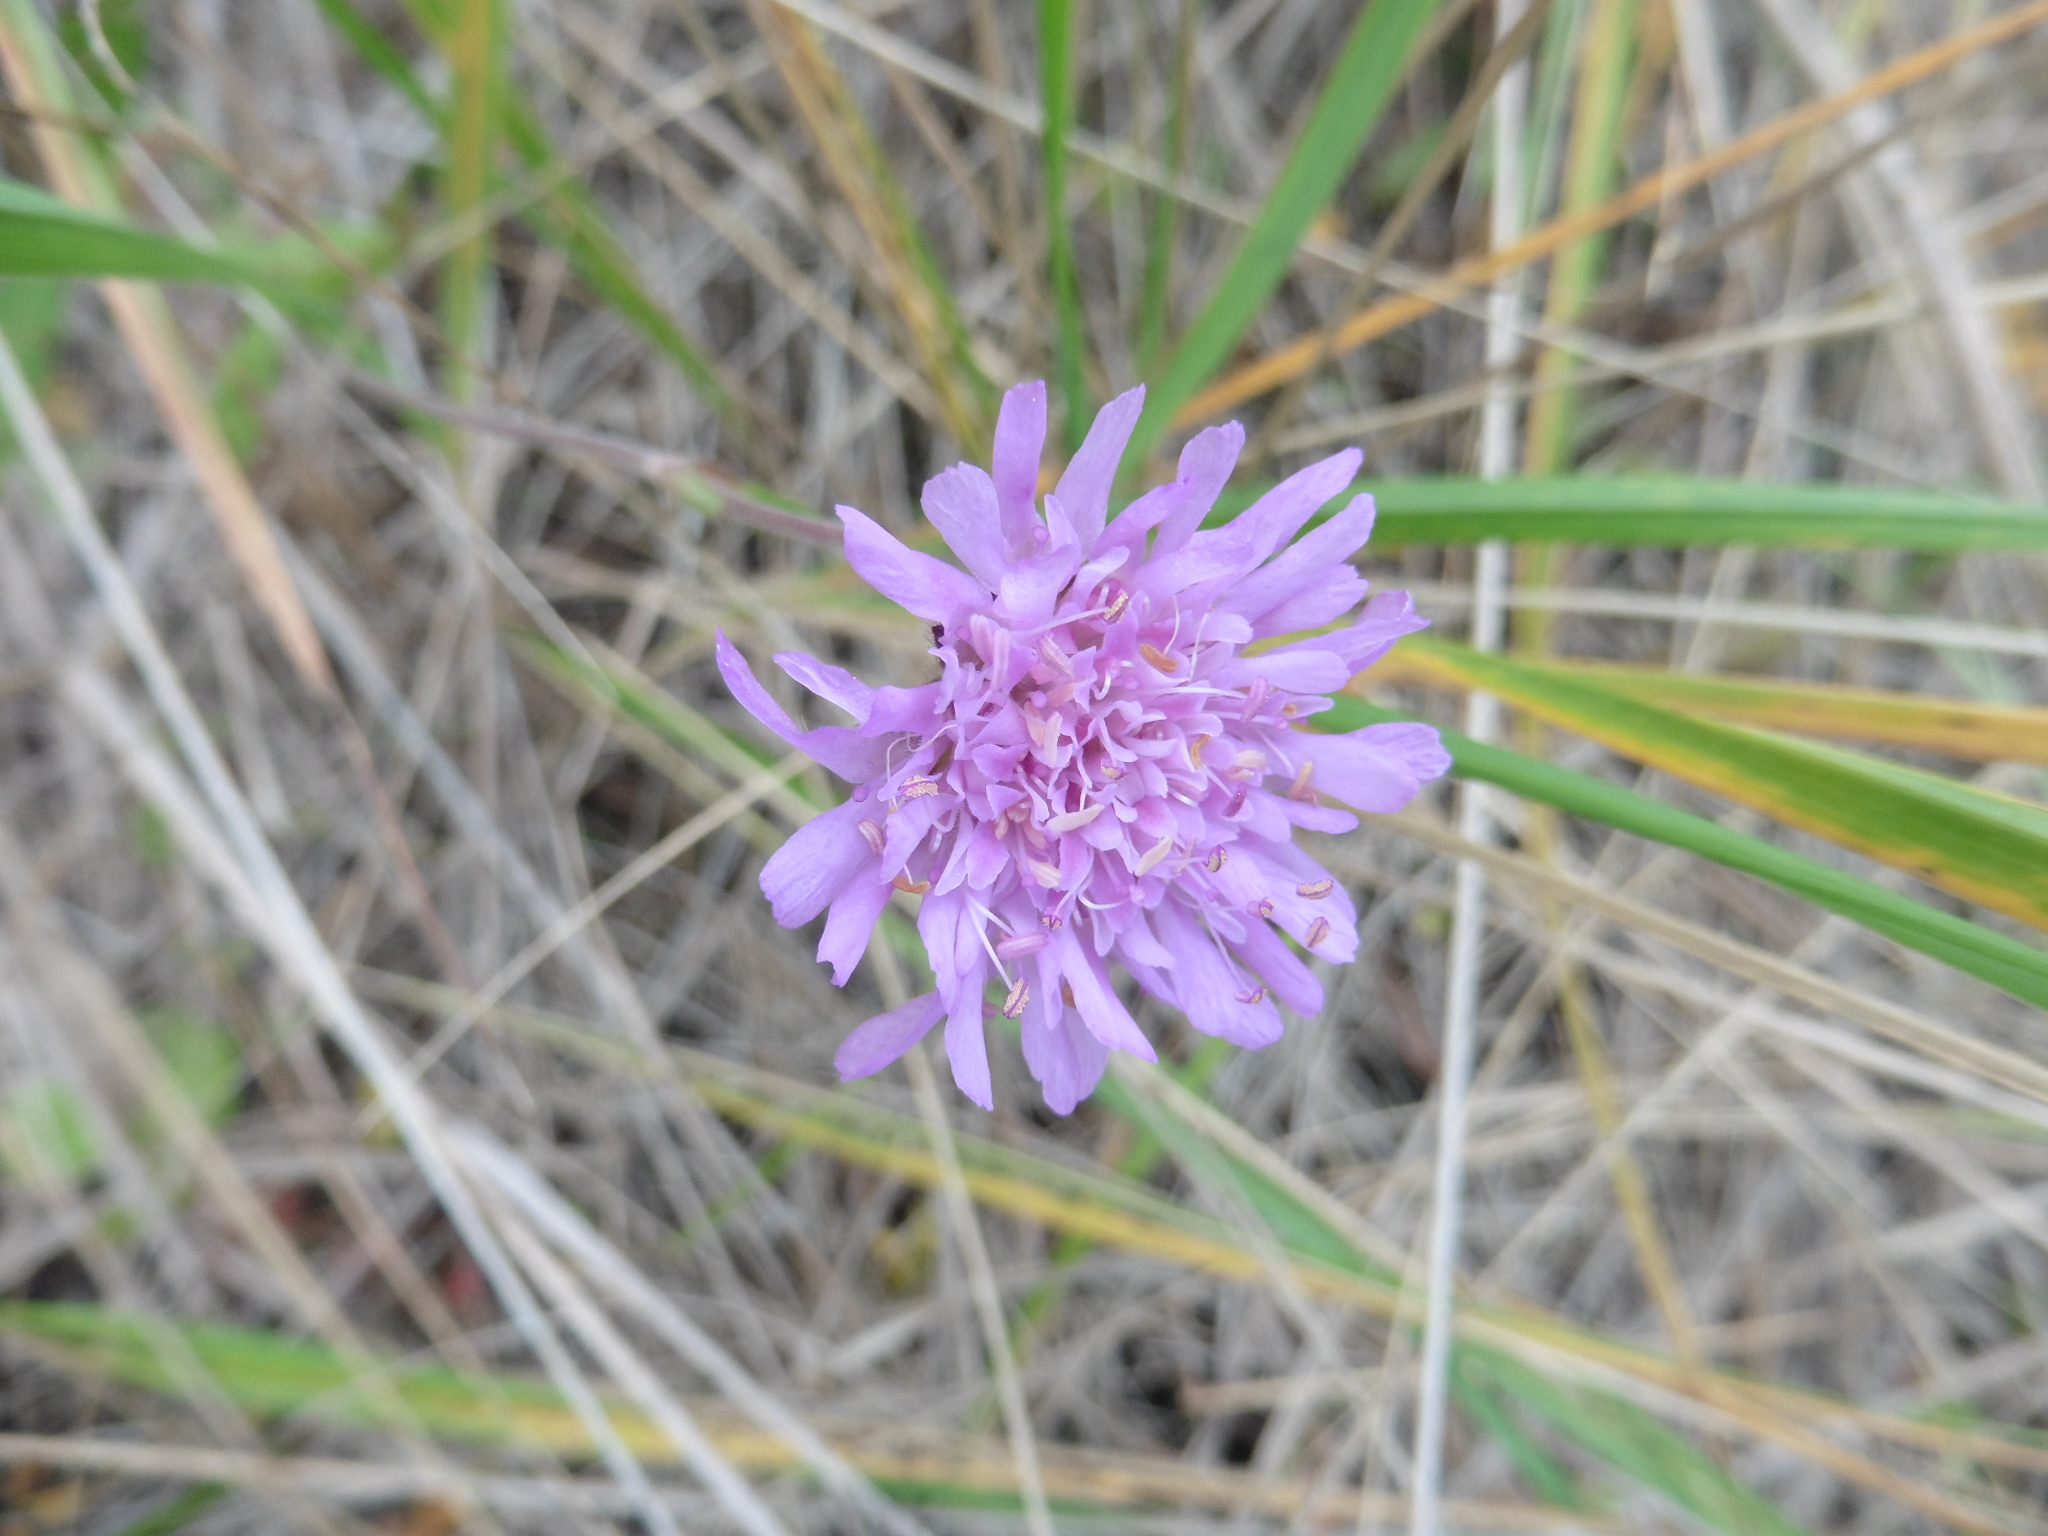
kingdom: Plantae
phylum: Tracheophyta
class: Magnoliopsida
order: Dipsacales
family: Caprifoliaceae
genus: Knautia
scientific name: Knautia arvensis
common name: Field scabiosa
